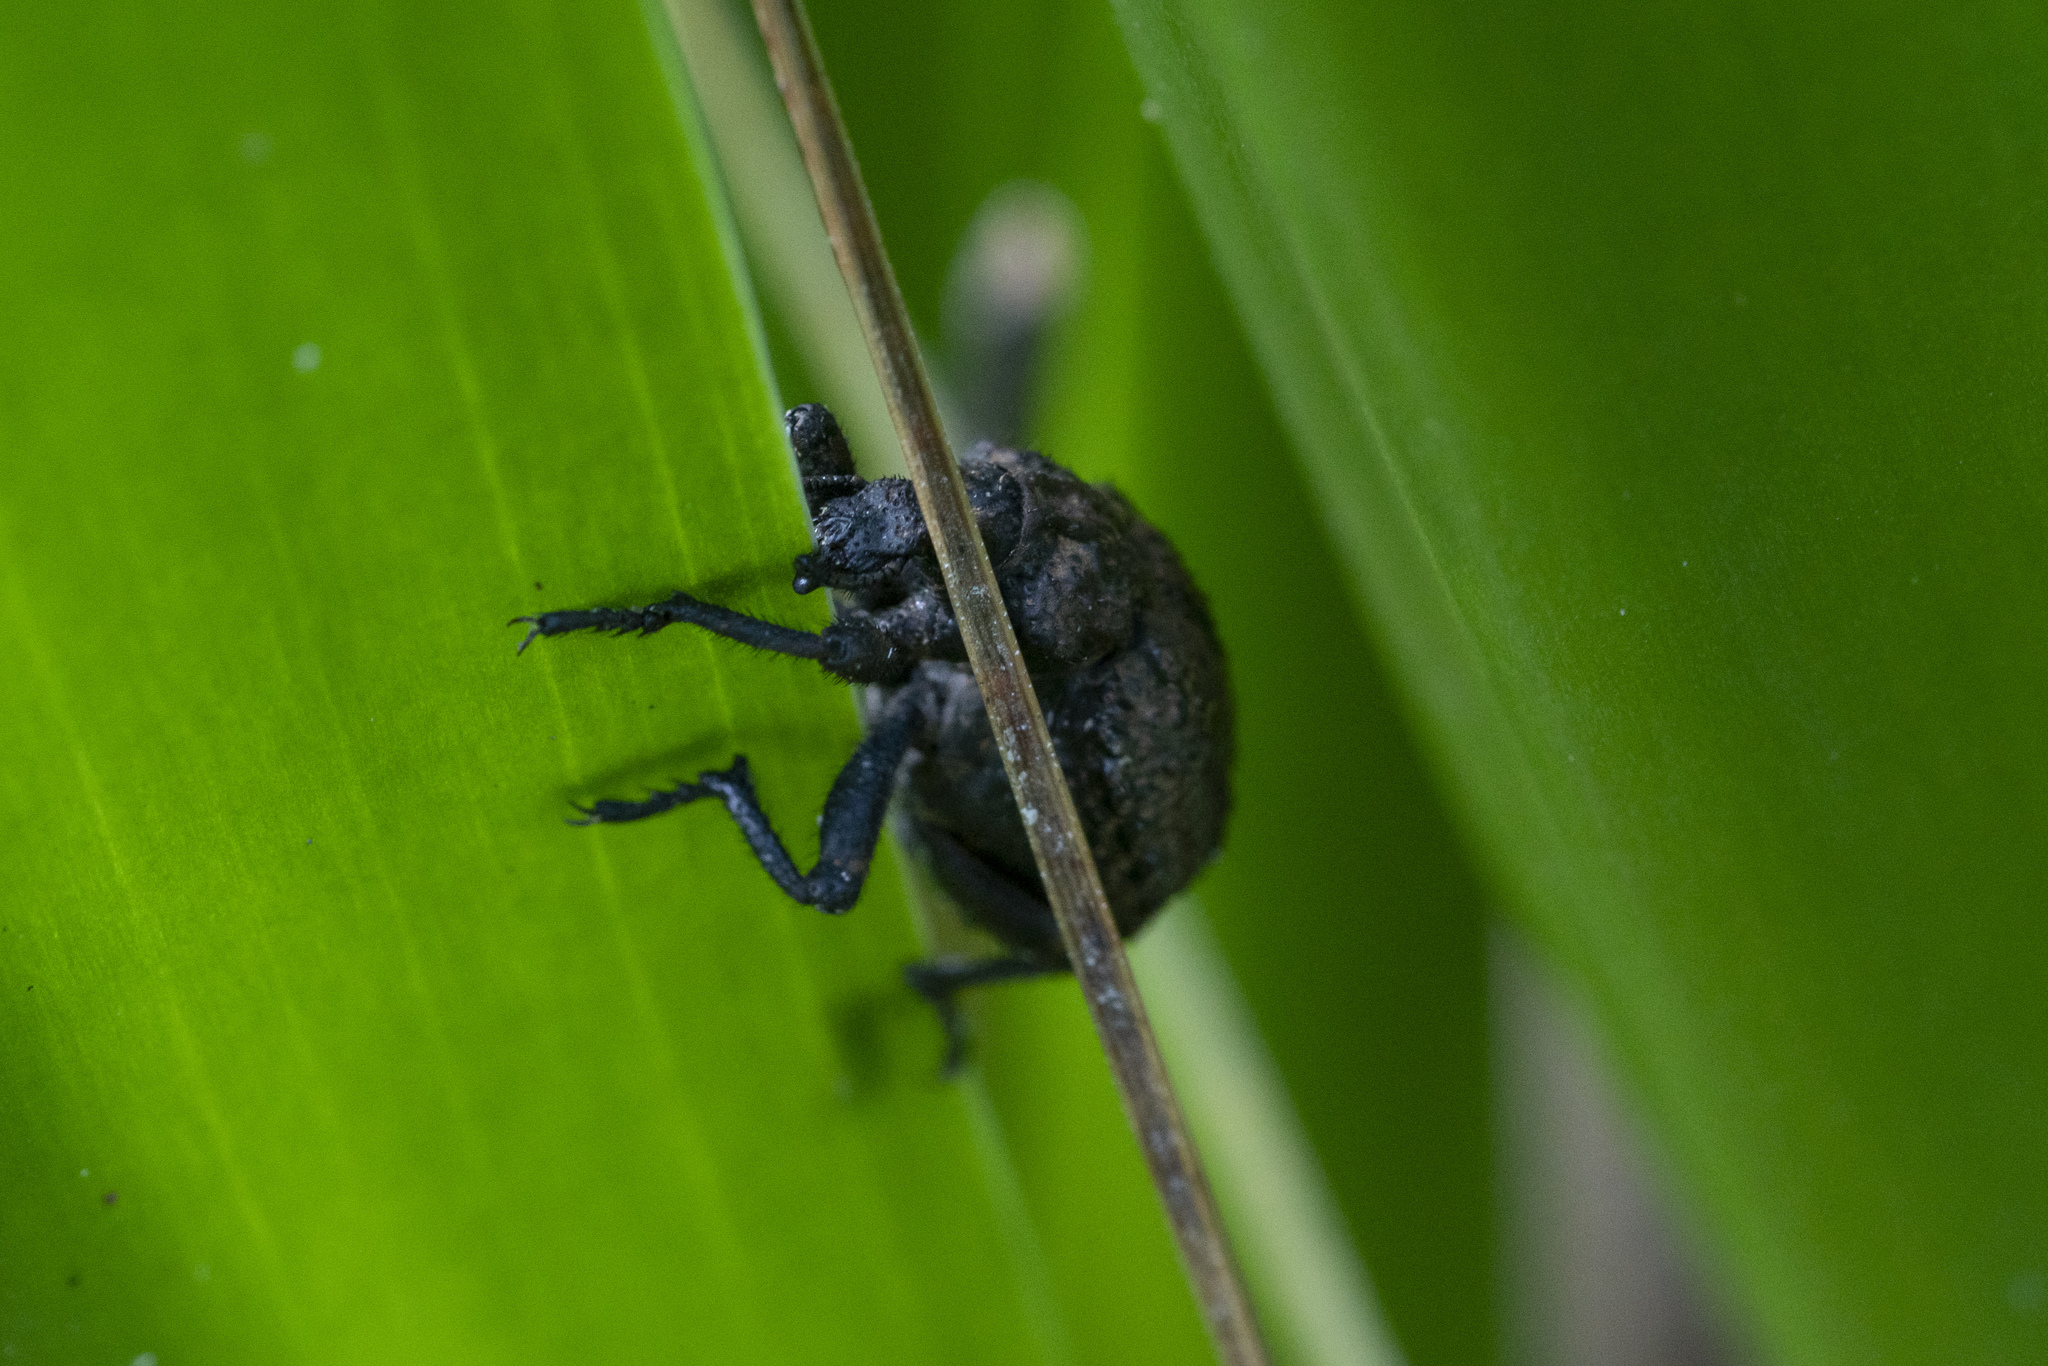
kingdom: Animalia
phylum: Arthropoda
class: Insecta
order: Coleoptera
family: Brachyceridae
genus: Brachycerus
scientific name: Brachycerus argillaceus
